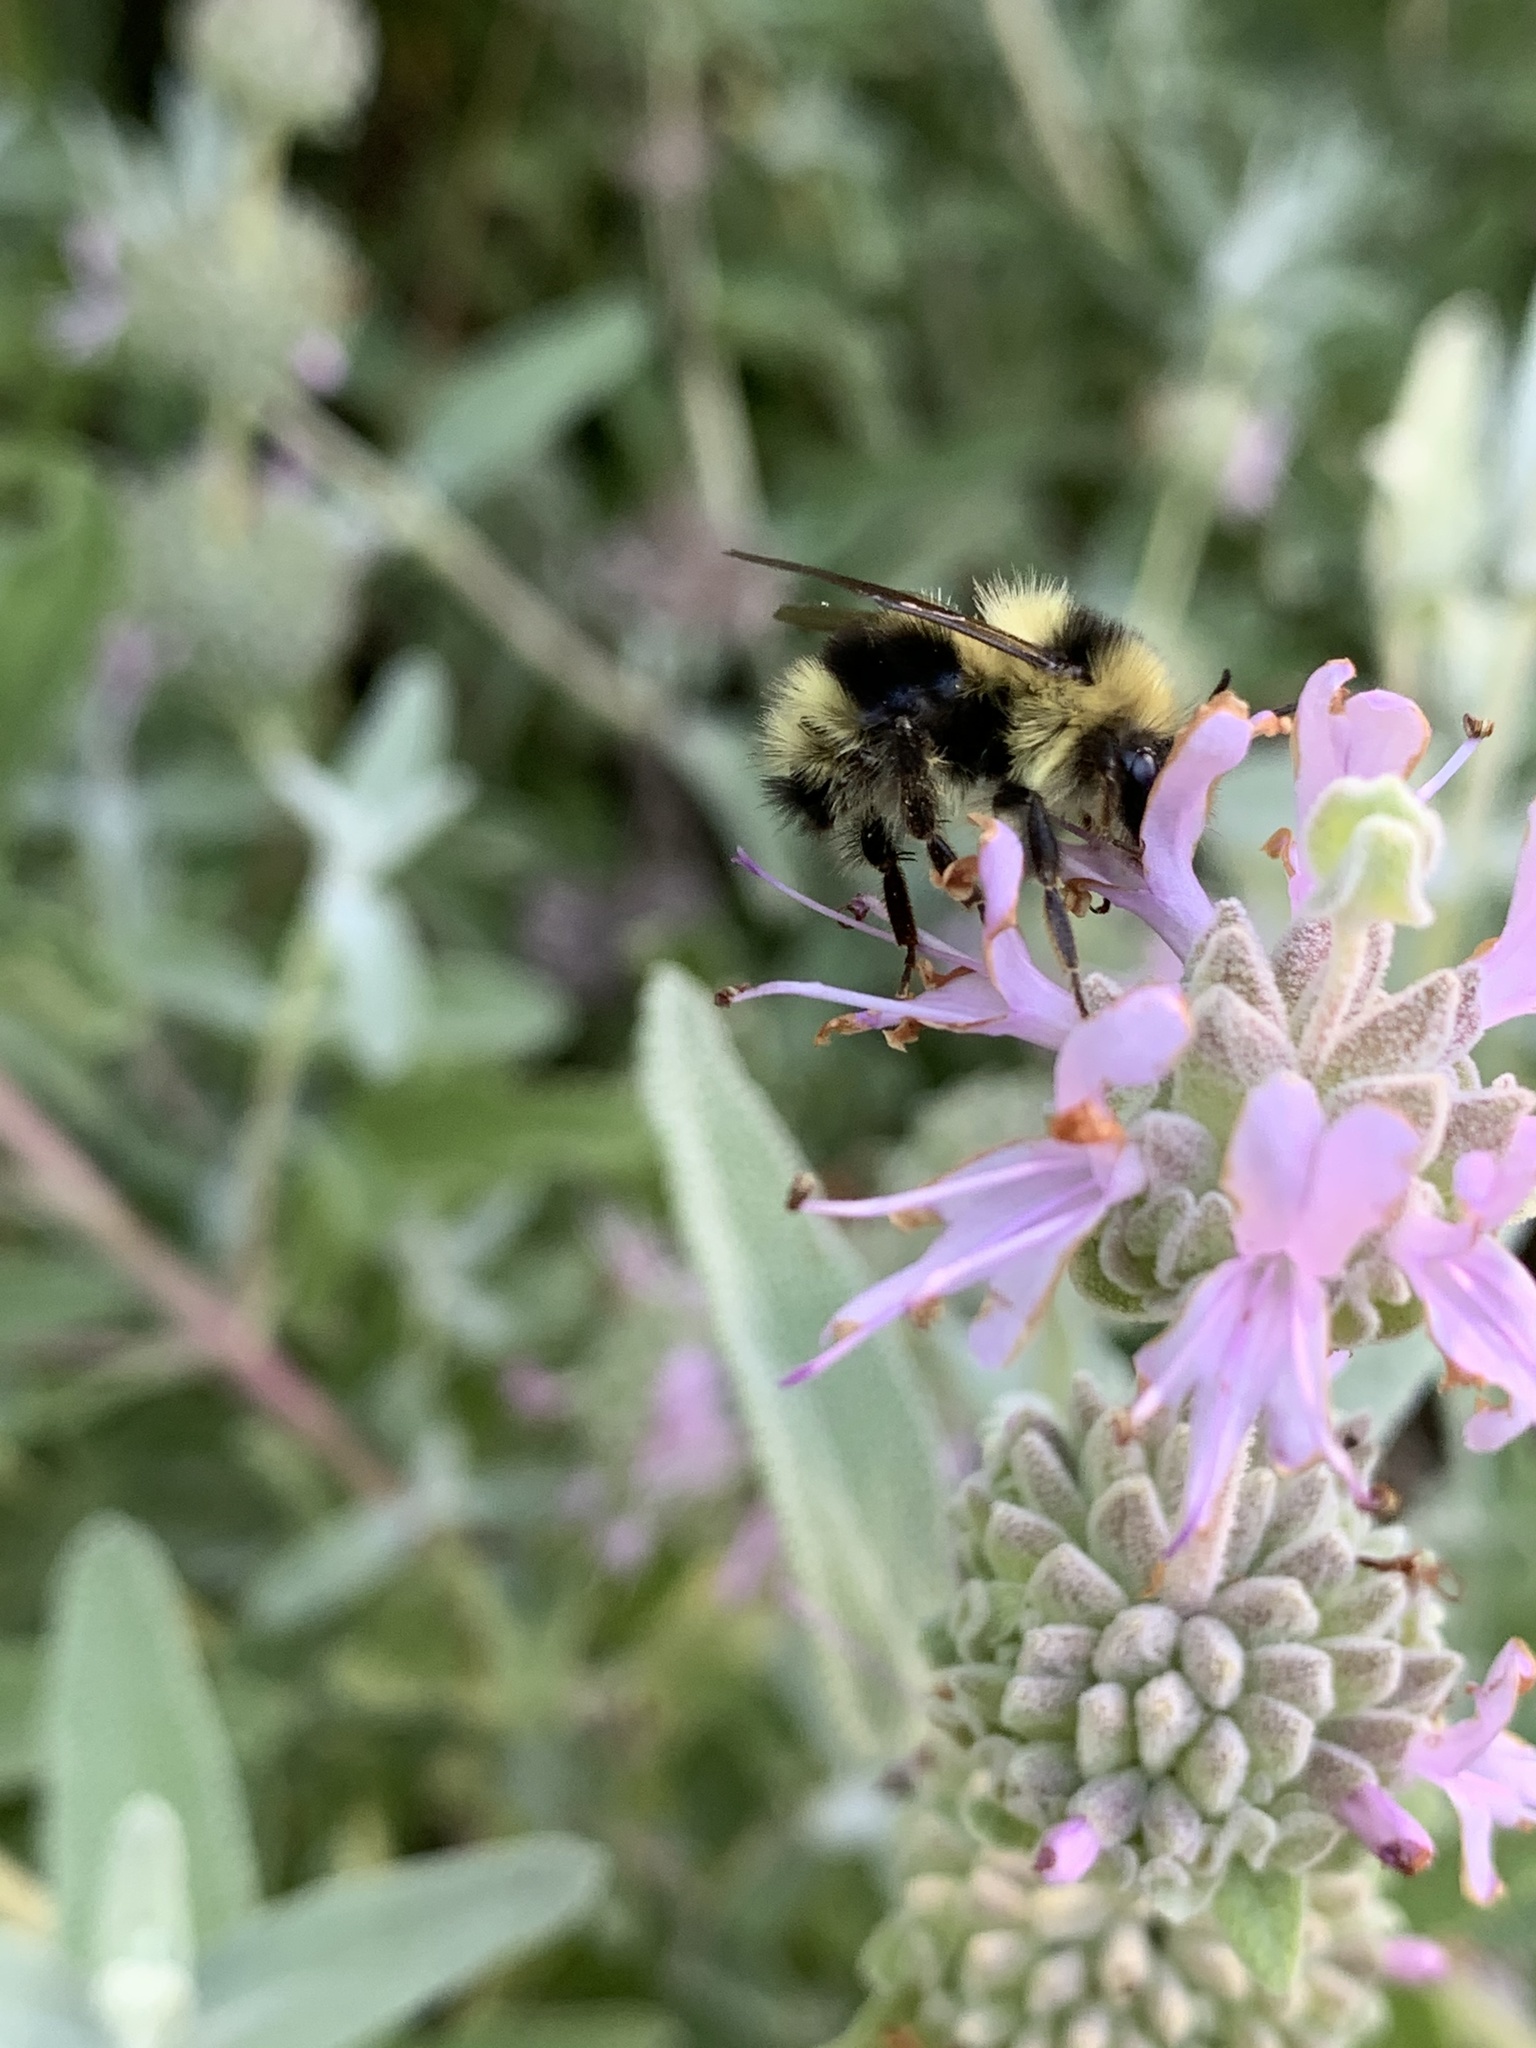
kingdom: Animalia
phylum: Arthropoda
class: Insecta
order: Hymenoptera
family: Apidae
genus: Bombus
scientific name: Bombus melanopygus
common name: Black tail bumble bee
